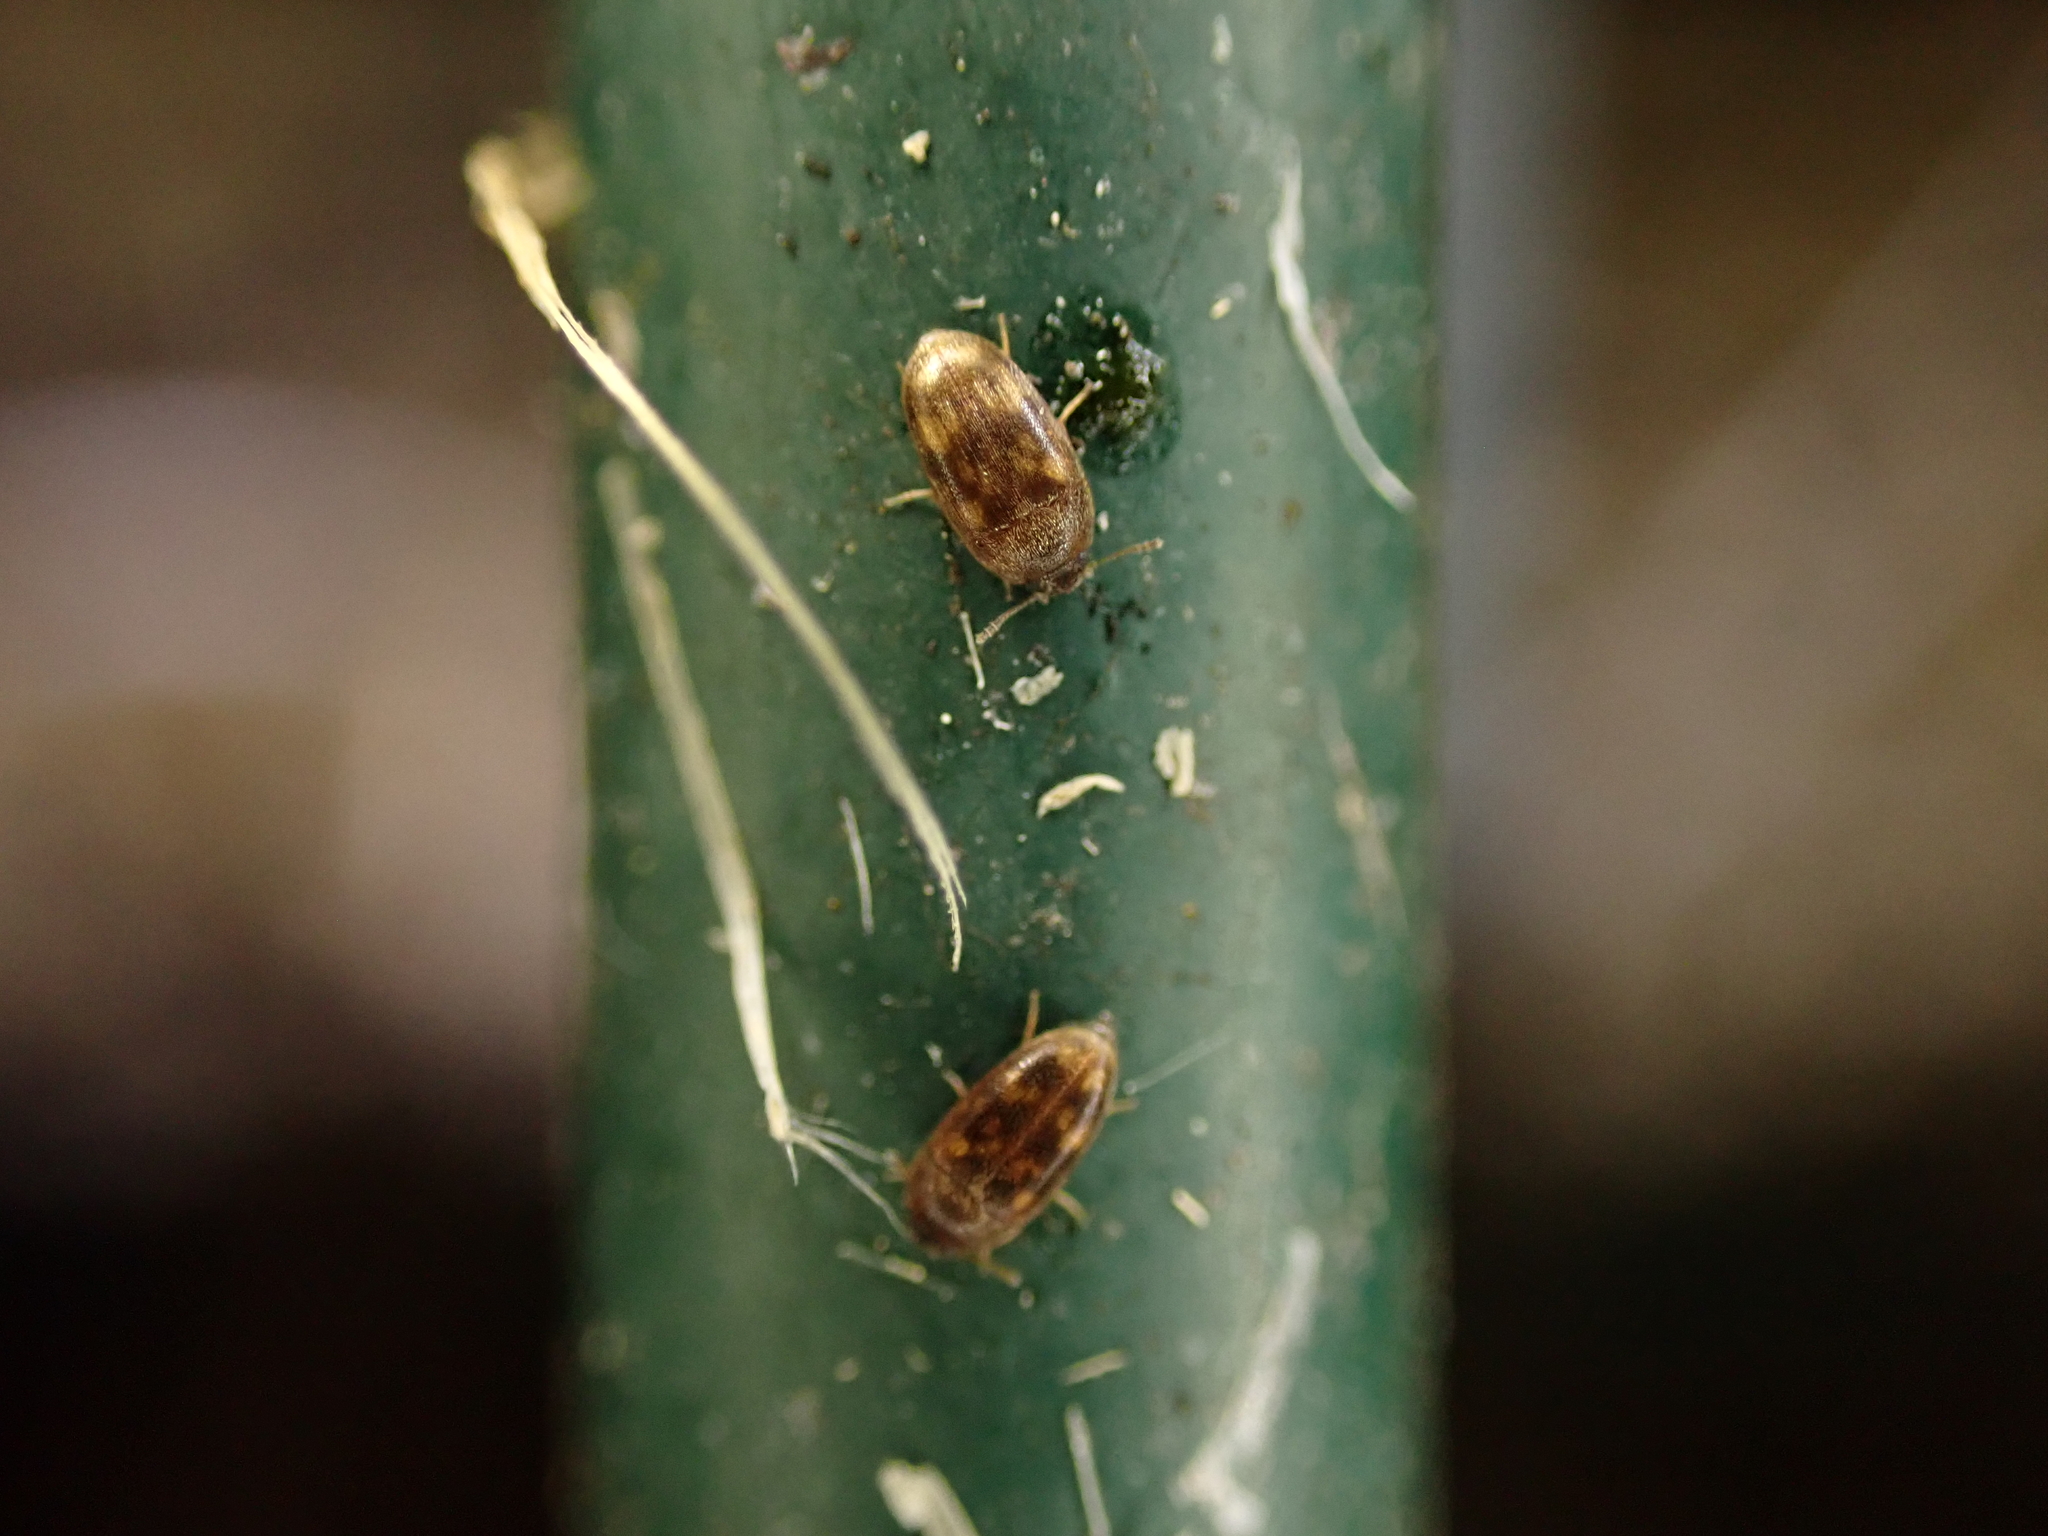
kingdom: Animalia
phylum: Arthropoda
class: Insecta
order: Coleoptera
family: Mycetophagidae
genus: Litargus
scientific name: Litargus vestitus
